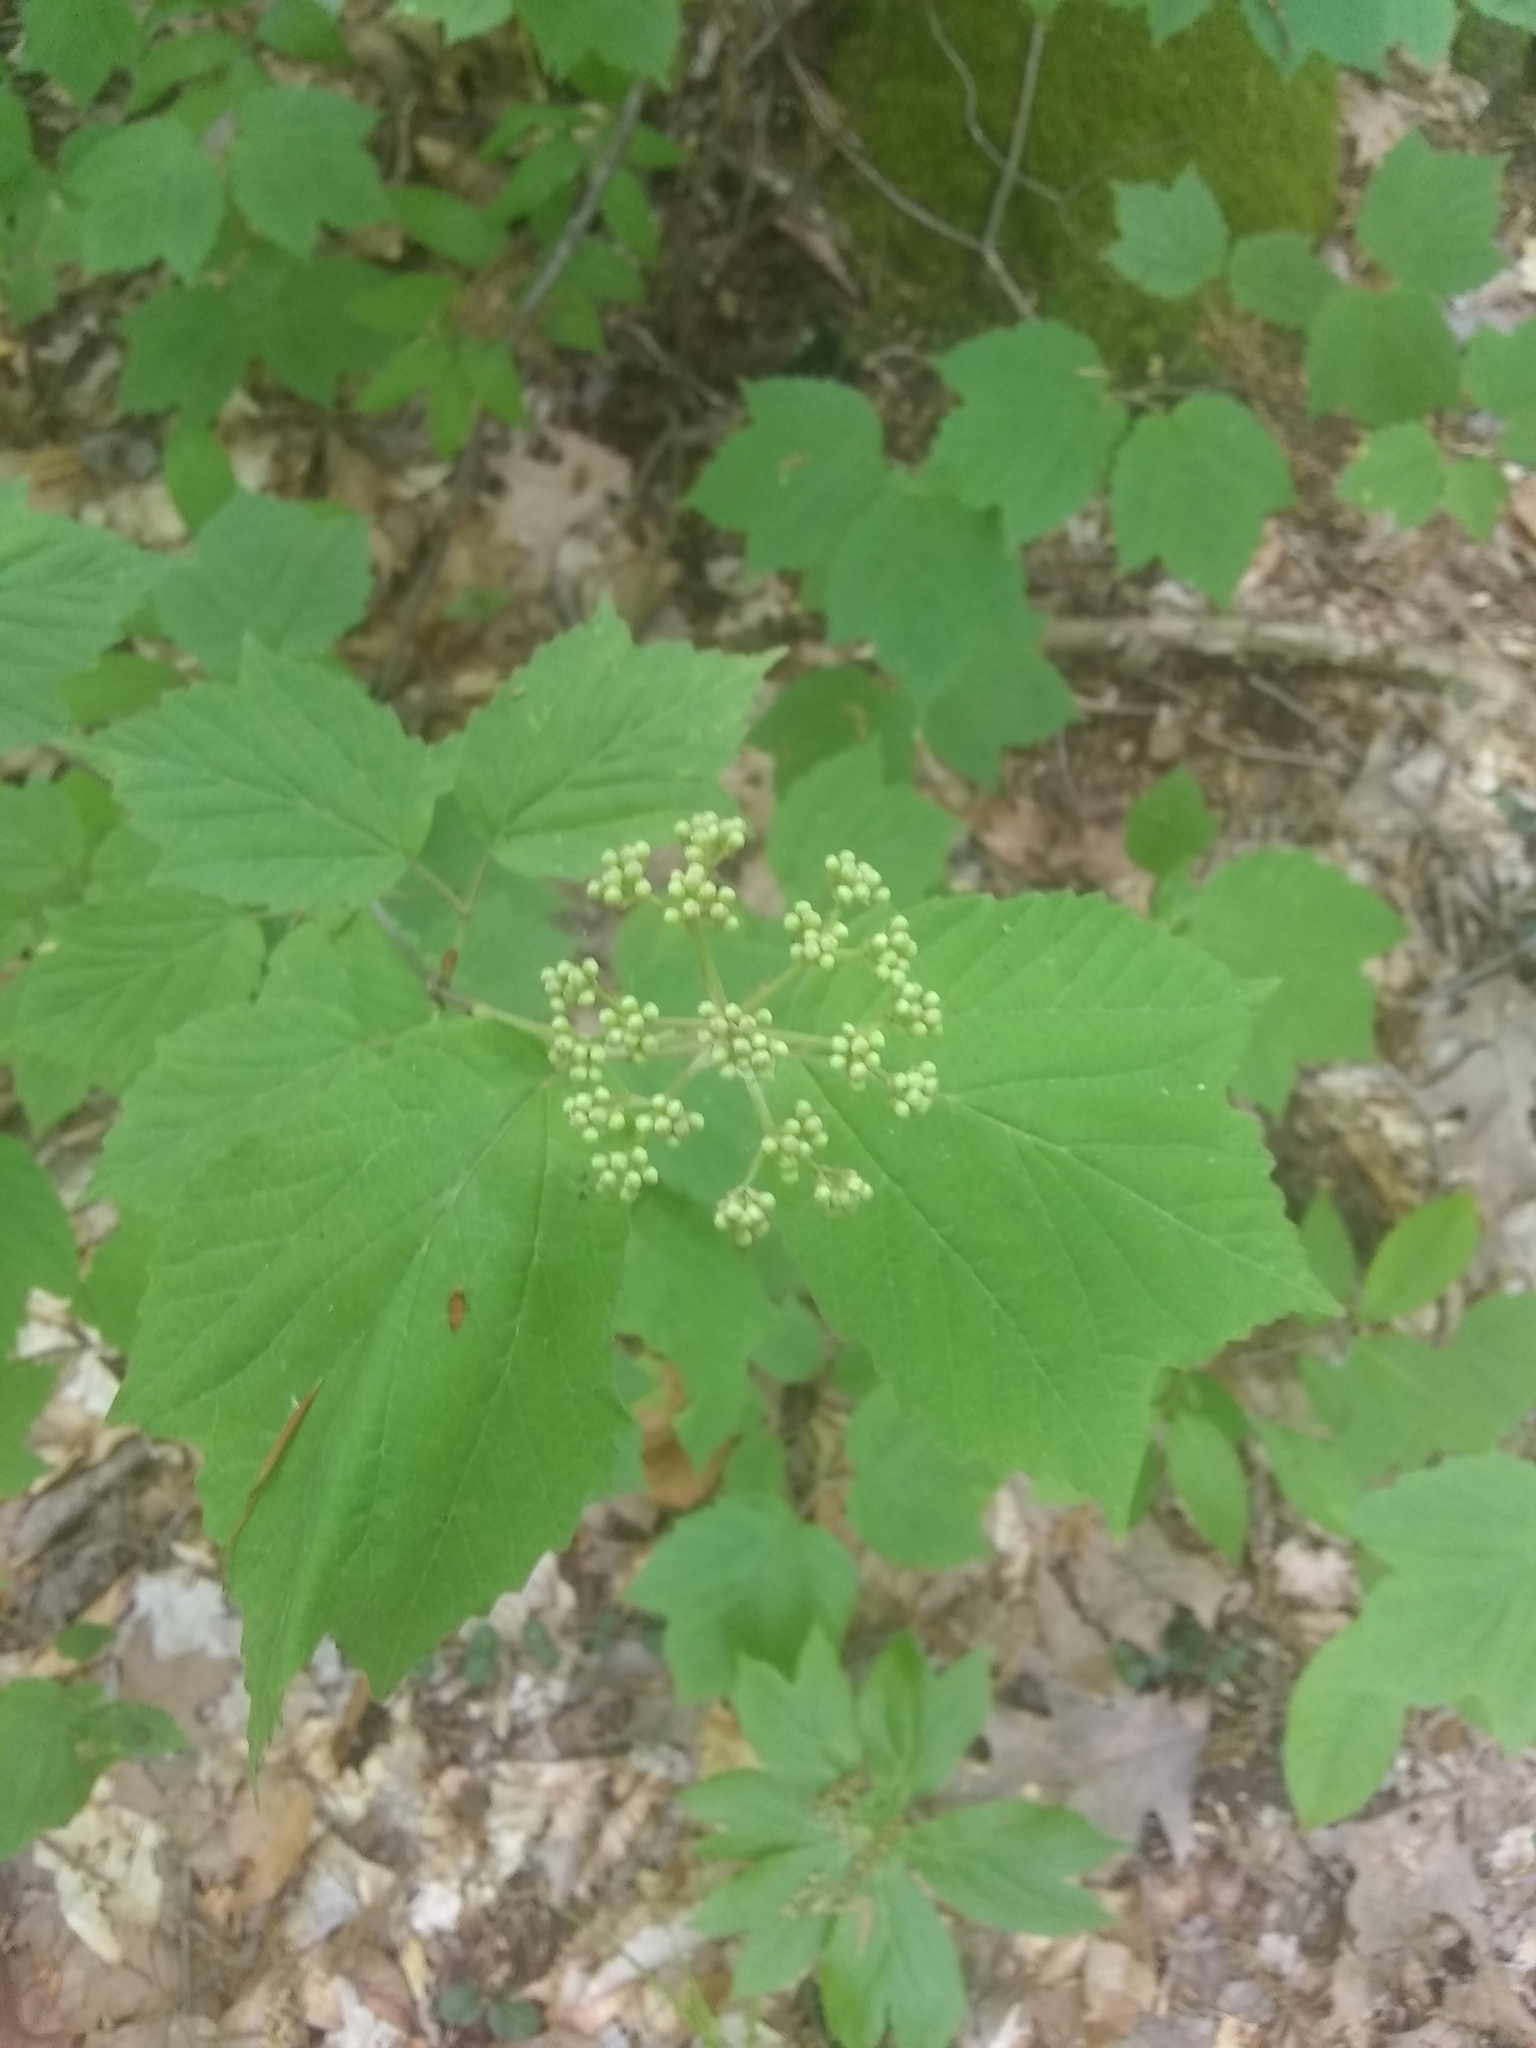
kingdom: Plantae
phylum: Tracheophyta
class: Magnoliopsida
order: Dipsacales
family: Viburnaceae
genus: Viburnum
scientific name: Viburnum acerifolium
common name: Dockmackie
